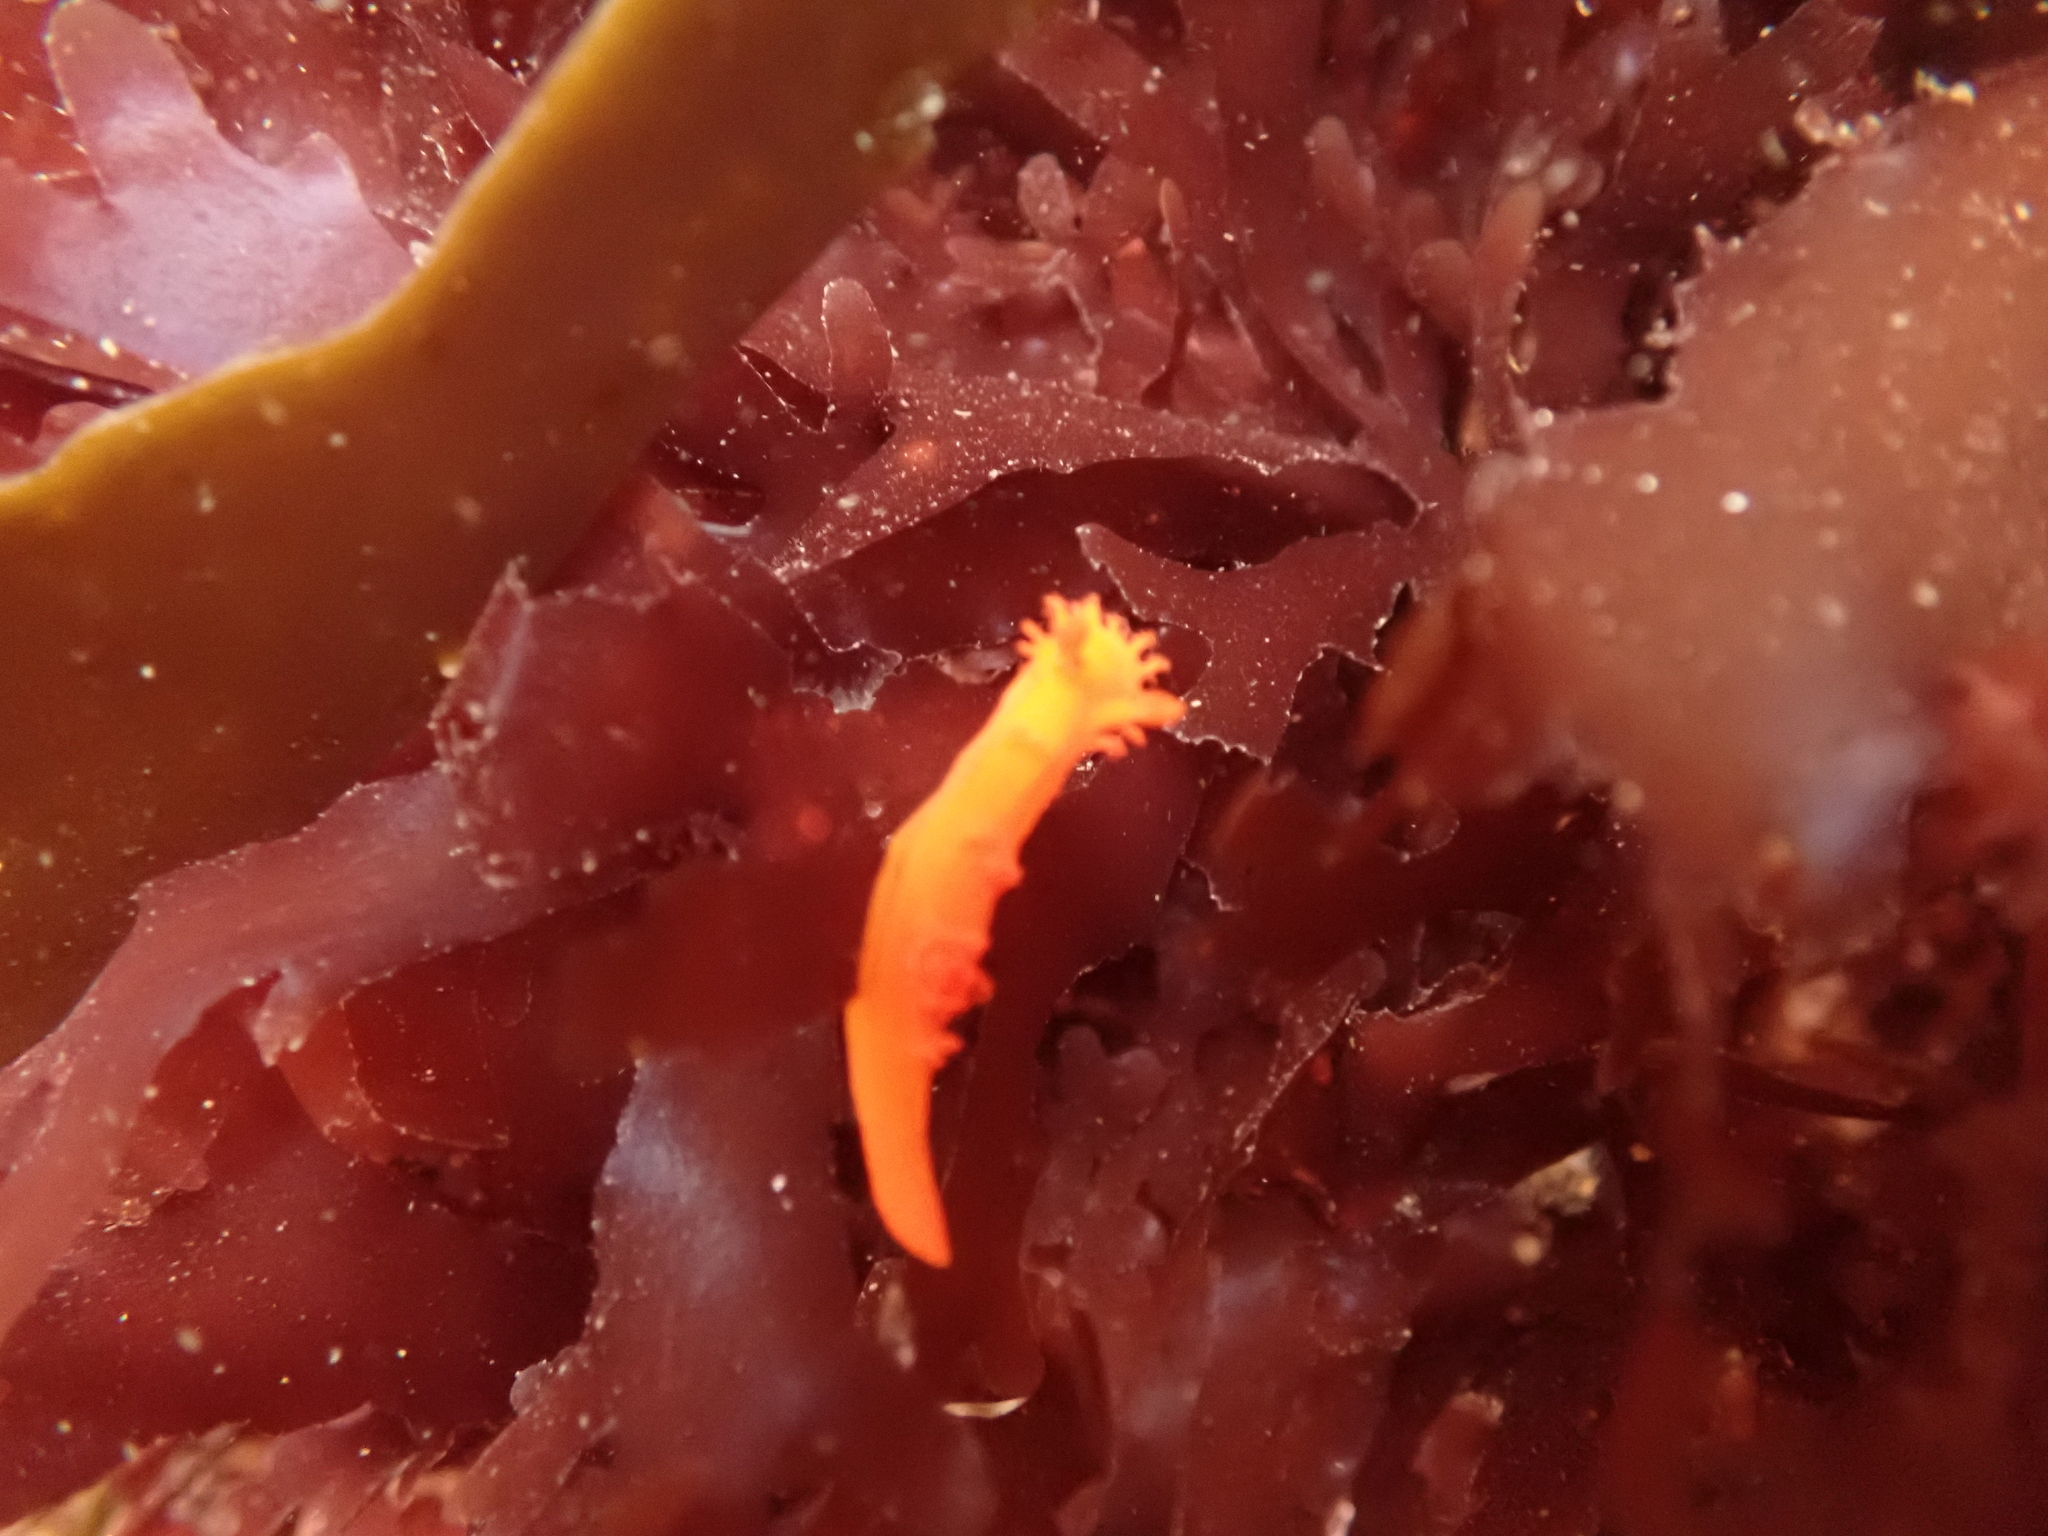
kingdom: Animalia
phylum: Mollusca
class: Gastropoda
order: Nudibranchia
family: Polyceridae
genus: Triopha
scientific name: Triopha maculata
